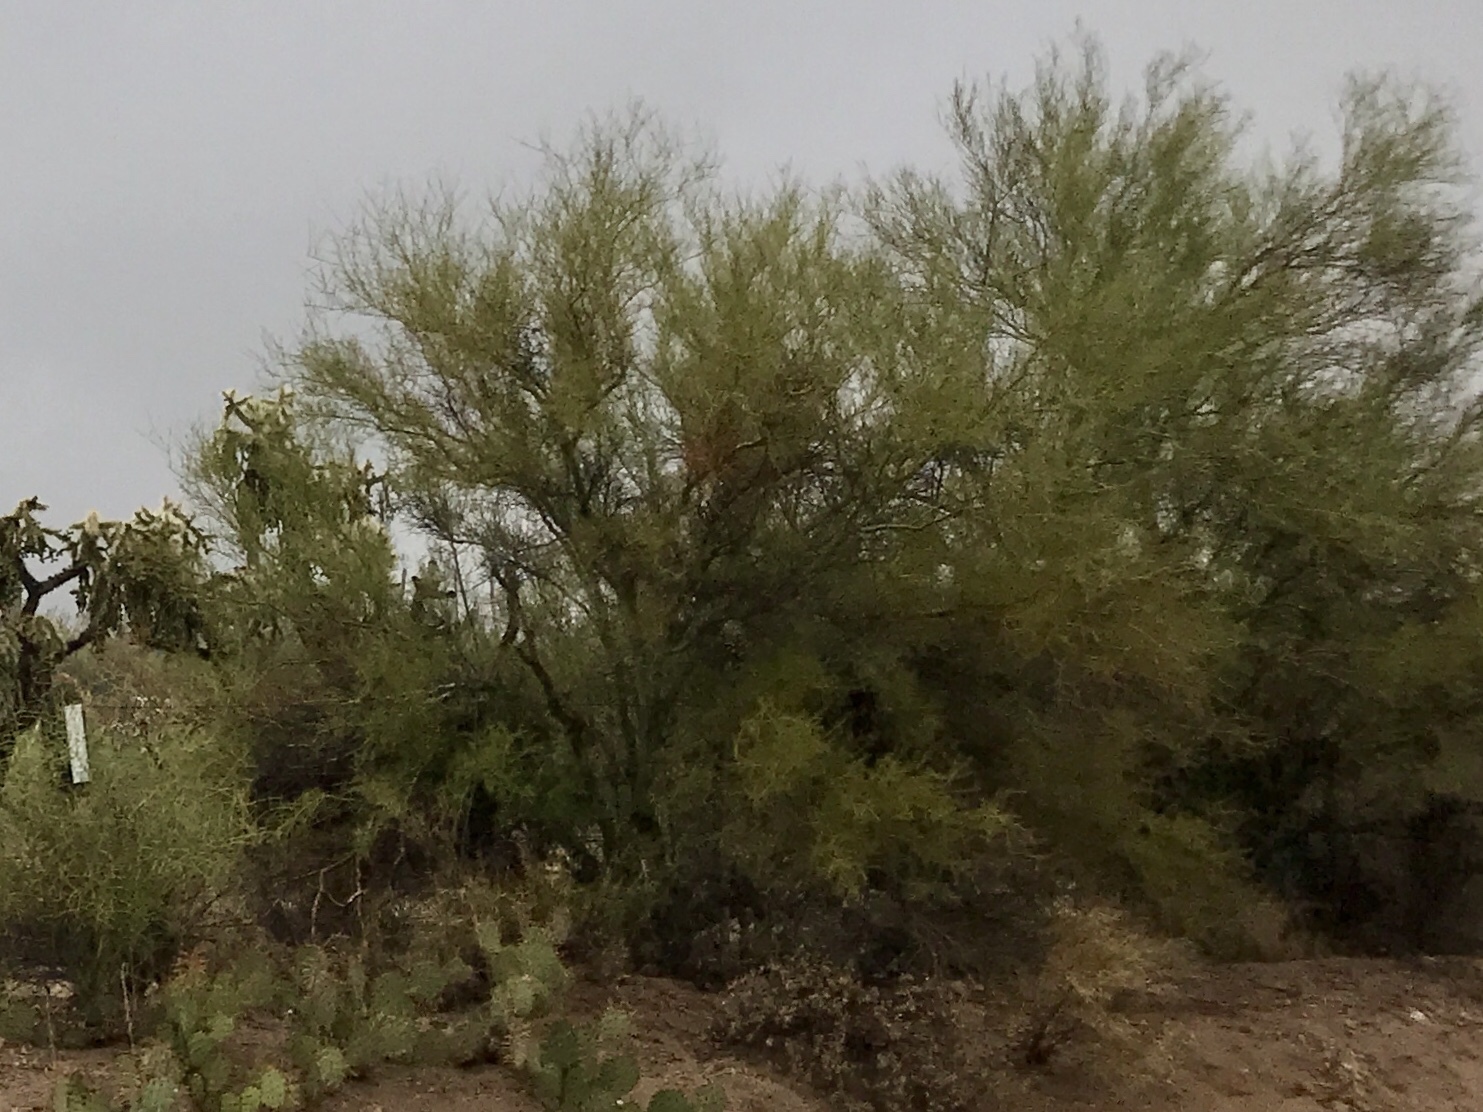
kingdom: Plantae
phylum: Tracheophyta
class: Magnoliopsida
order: Fabales
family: Fabaceae
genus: Parkinsonia
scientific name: Parkinsonia microphylla
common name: Yellow paloverde
